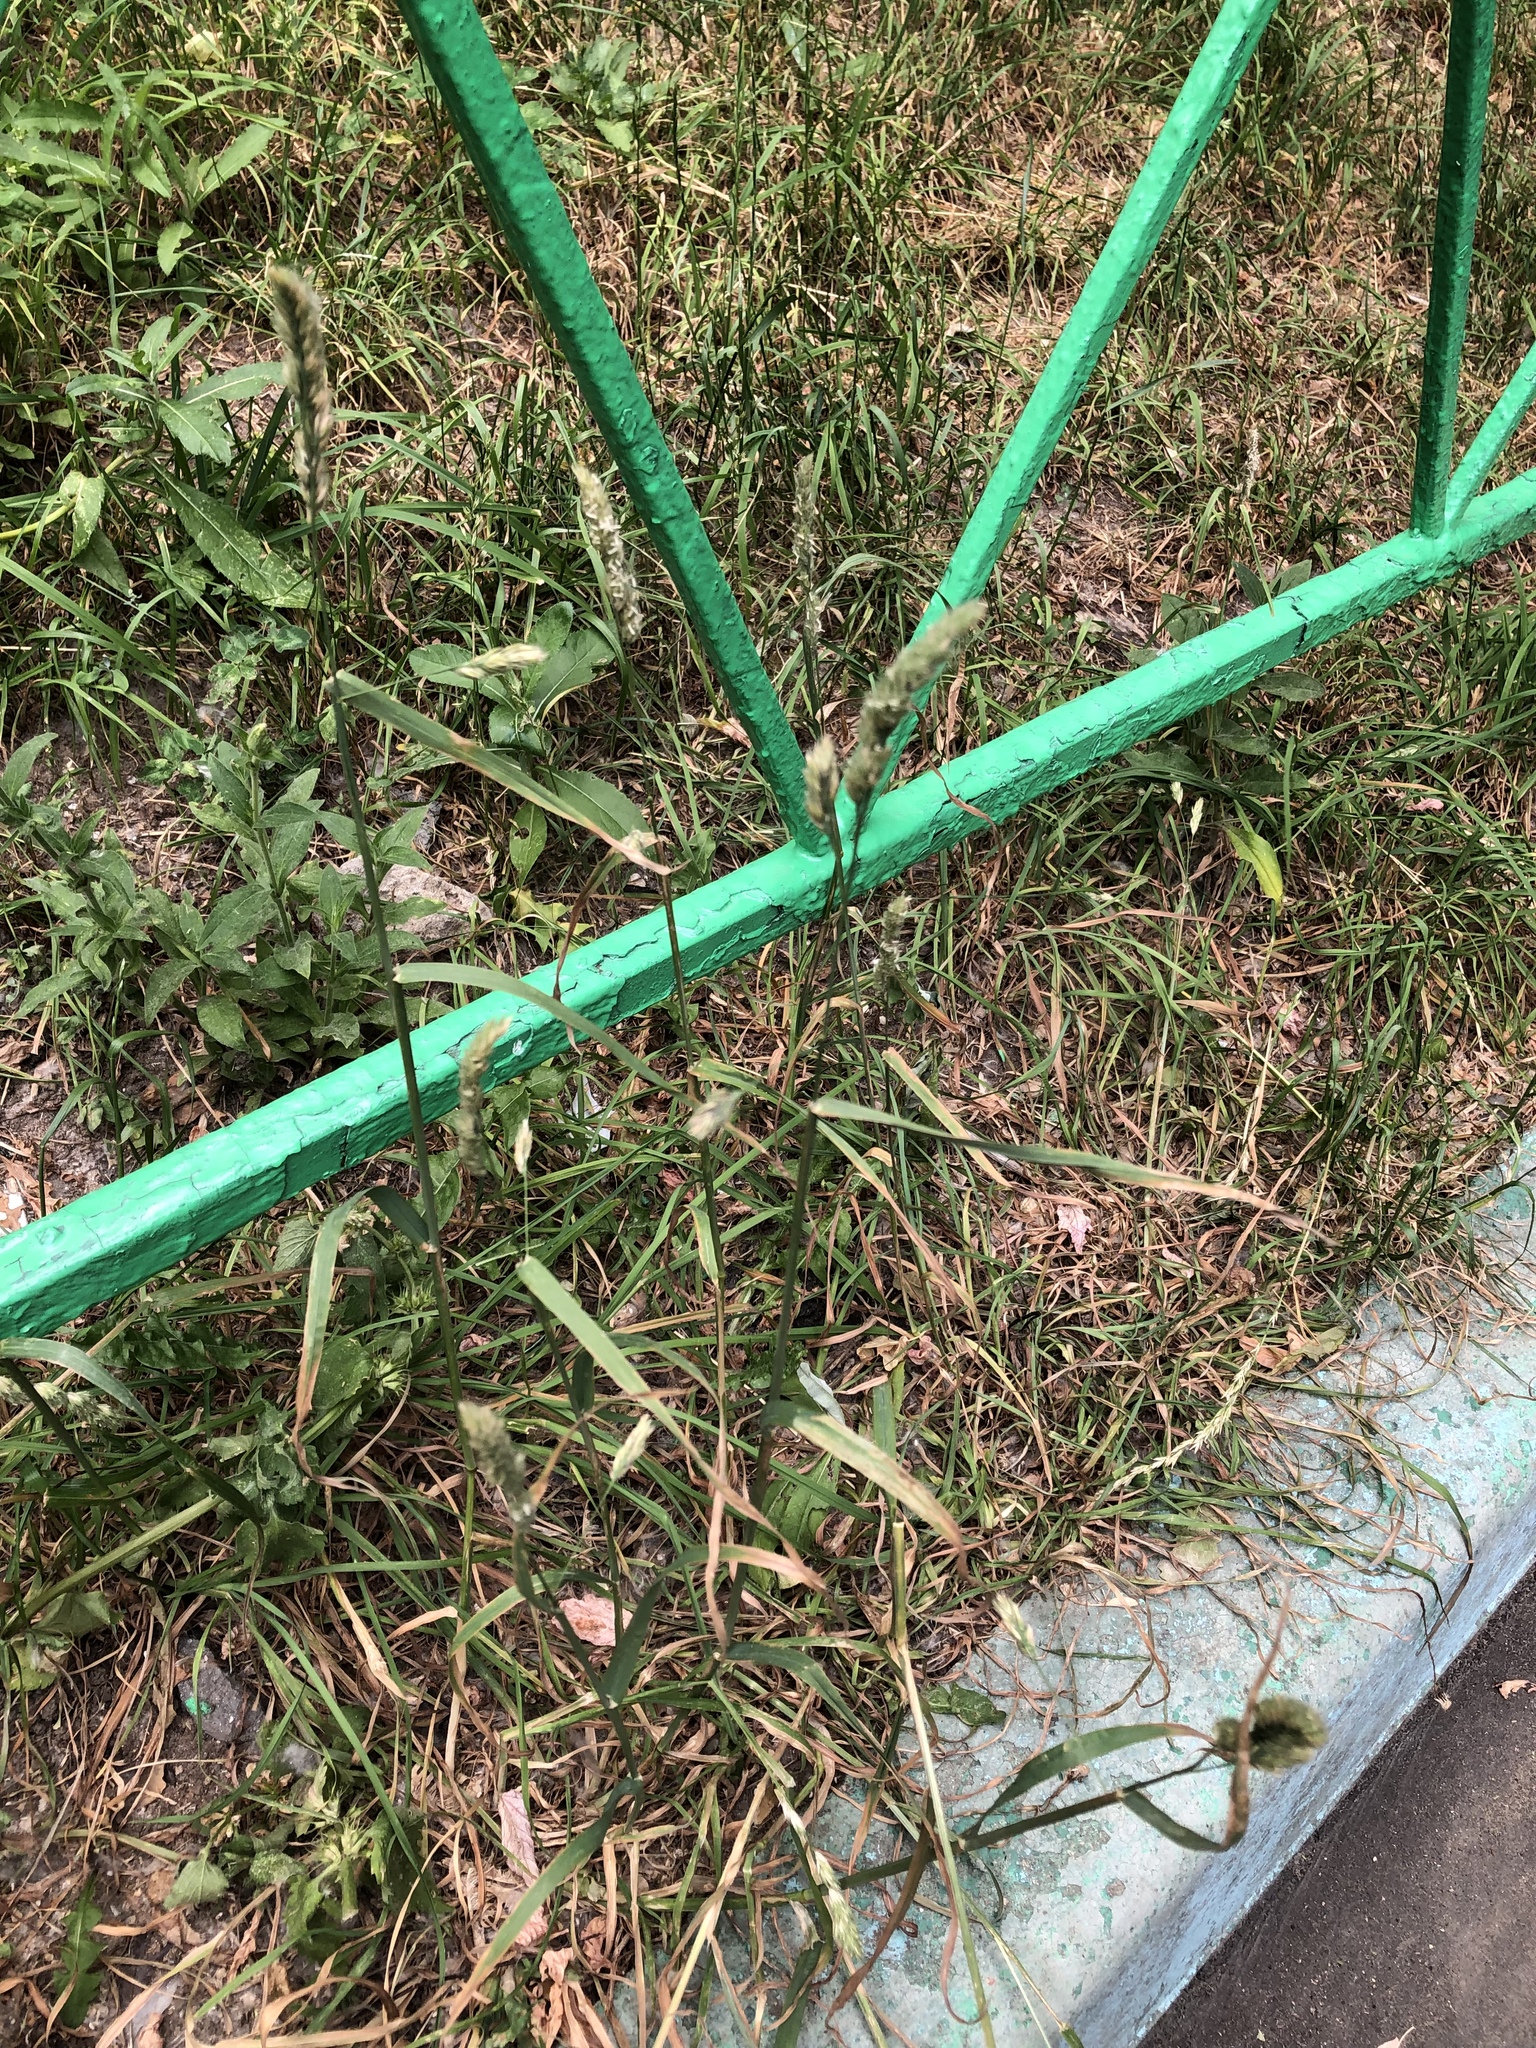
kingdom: Plantae
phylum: Tracheophyta
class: Liliopsida
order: Poales
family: Poaceae
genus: Dactylis
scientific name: Dactylis glomerata
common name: Orchardgrass
